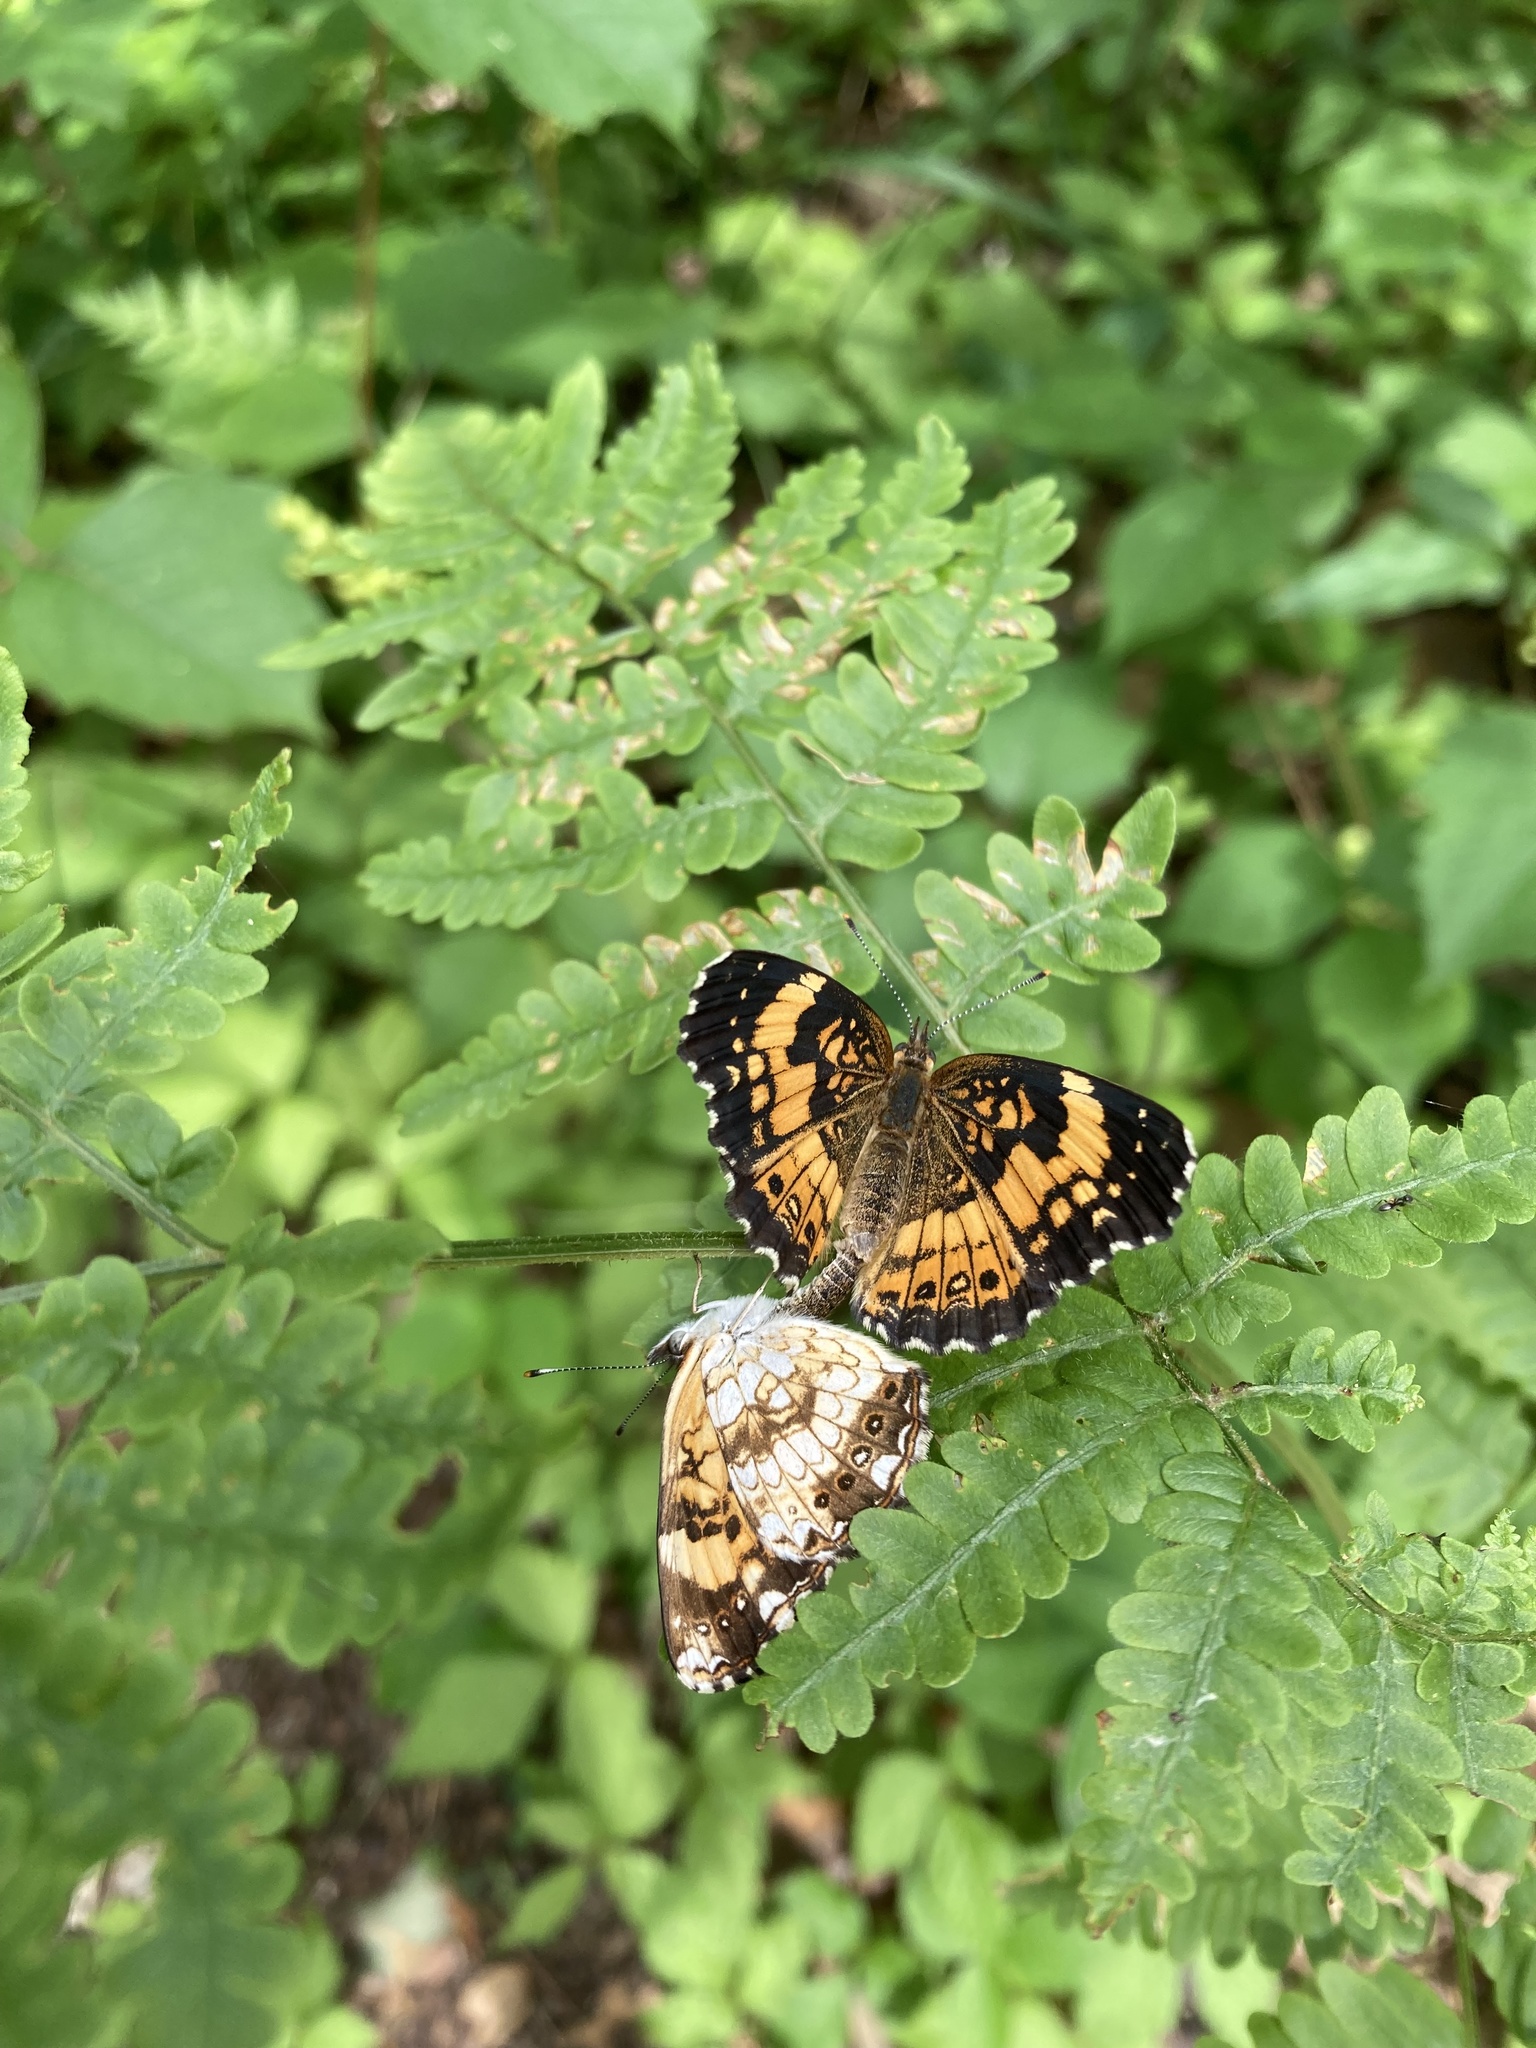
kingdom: Animalia
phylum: Arthropoda
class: Insecta
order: Lepidoptera
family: Nymphalidae
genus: Chlosyne
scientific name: Chlosyne nycteis
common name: Silvery checkerspot
